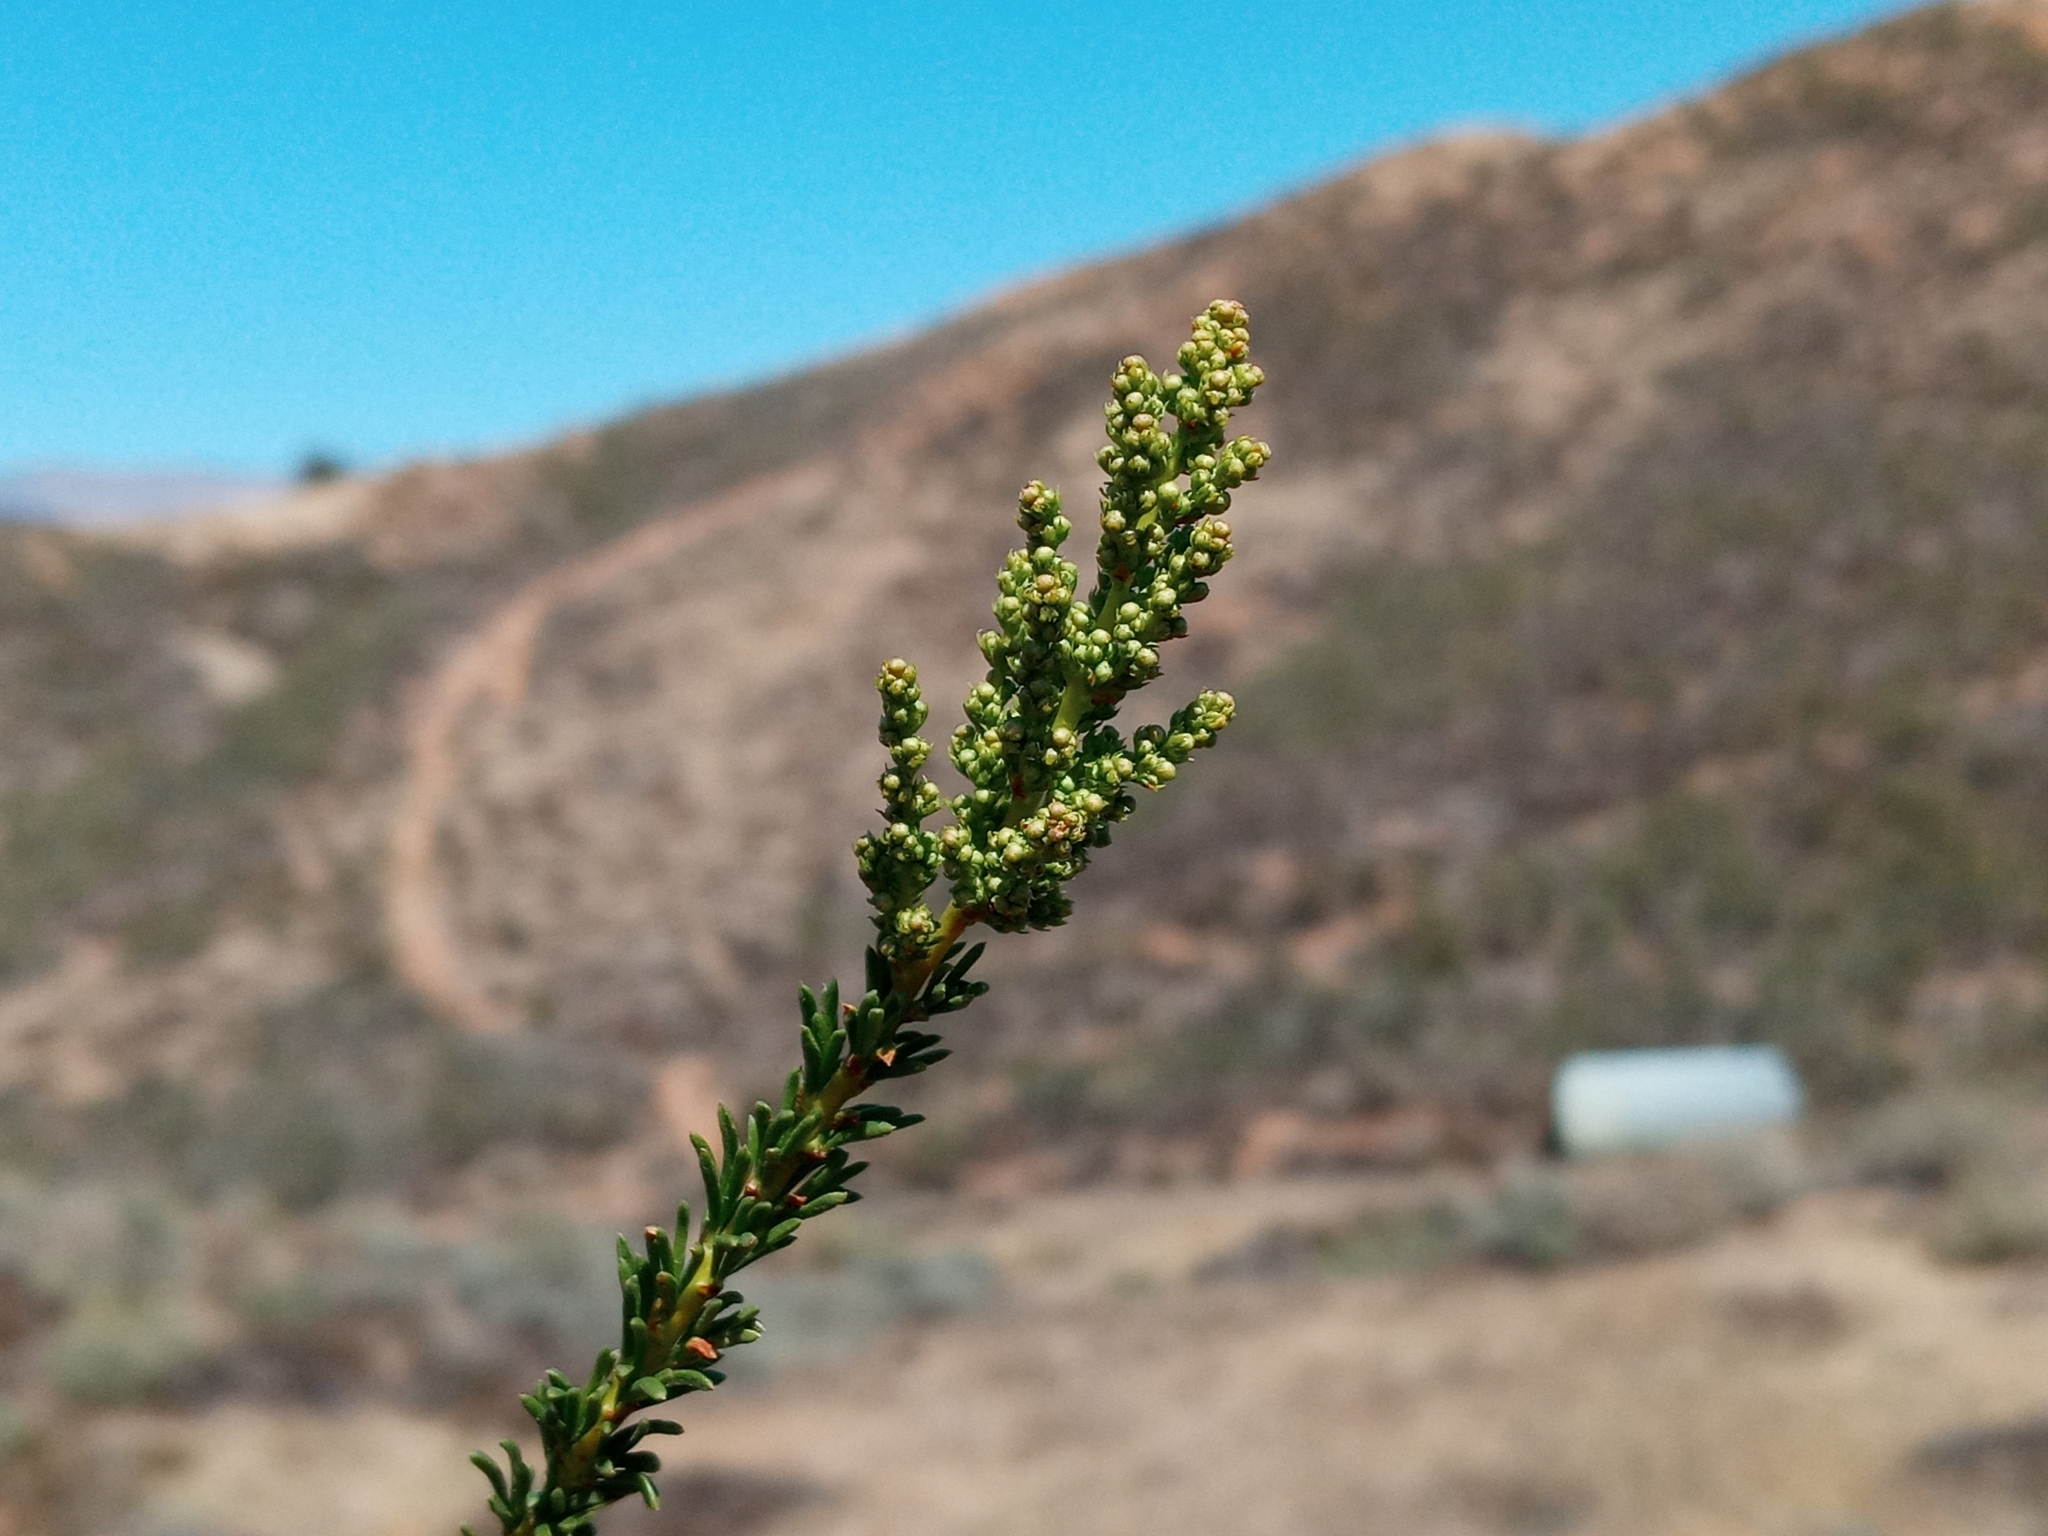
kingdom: Plantae
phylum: Tracheophyta
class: Magnoliopsida
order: Rosales
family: Rosaceae
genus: Adenostoma
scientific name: Adenostoma fasciculatum
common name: Chamise
